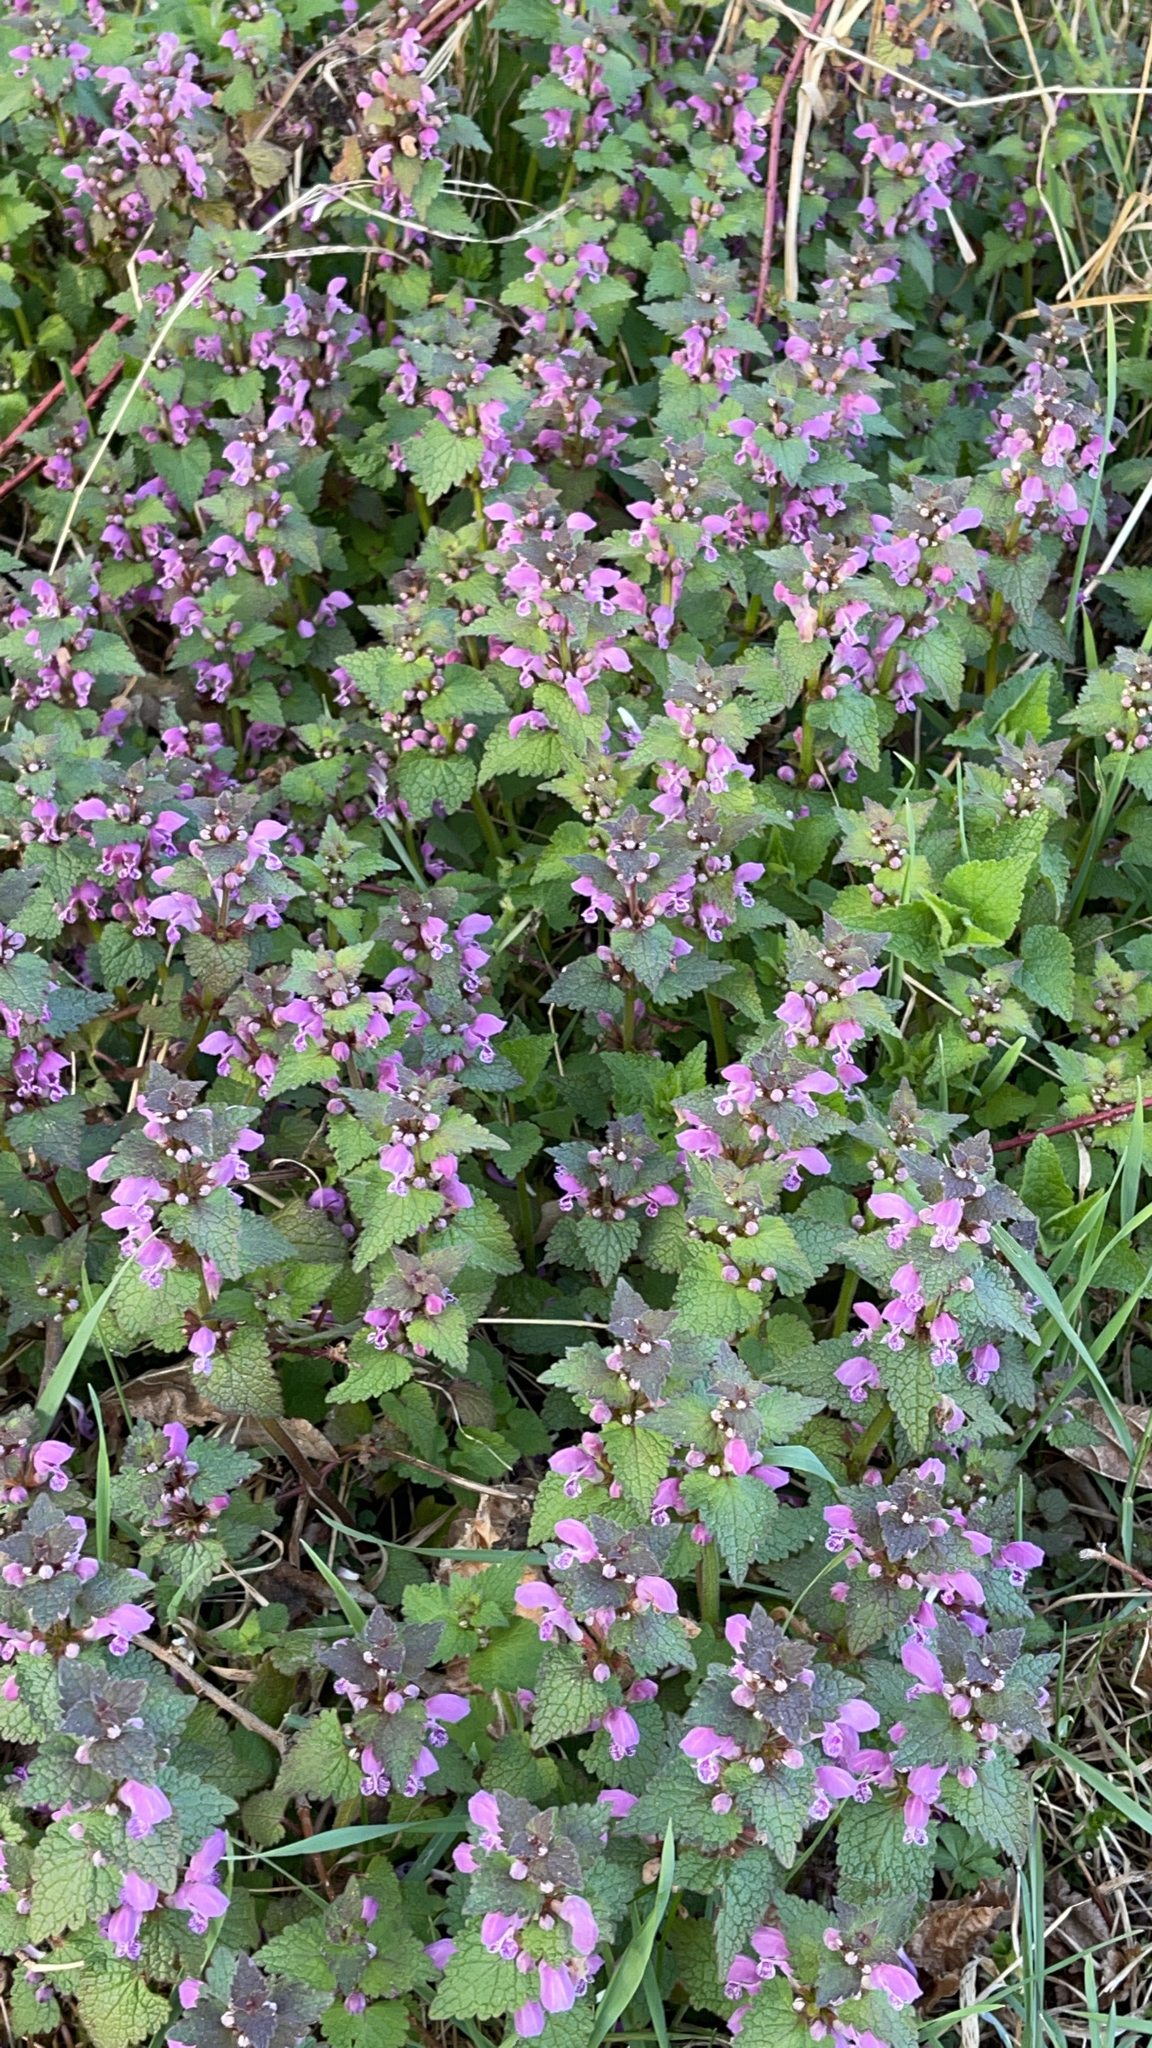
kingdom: Plantae
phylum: Tracheophyta
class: Magnoliopsida
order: Lamiales
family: Lamiaceae
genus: Lamium
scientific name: Lamium maculatum
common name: Spotted dead-nettle
